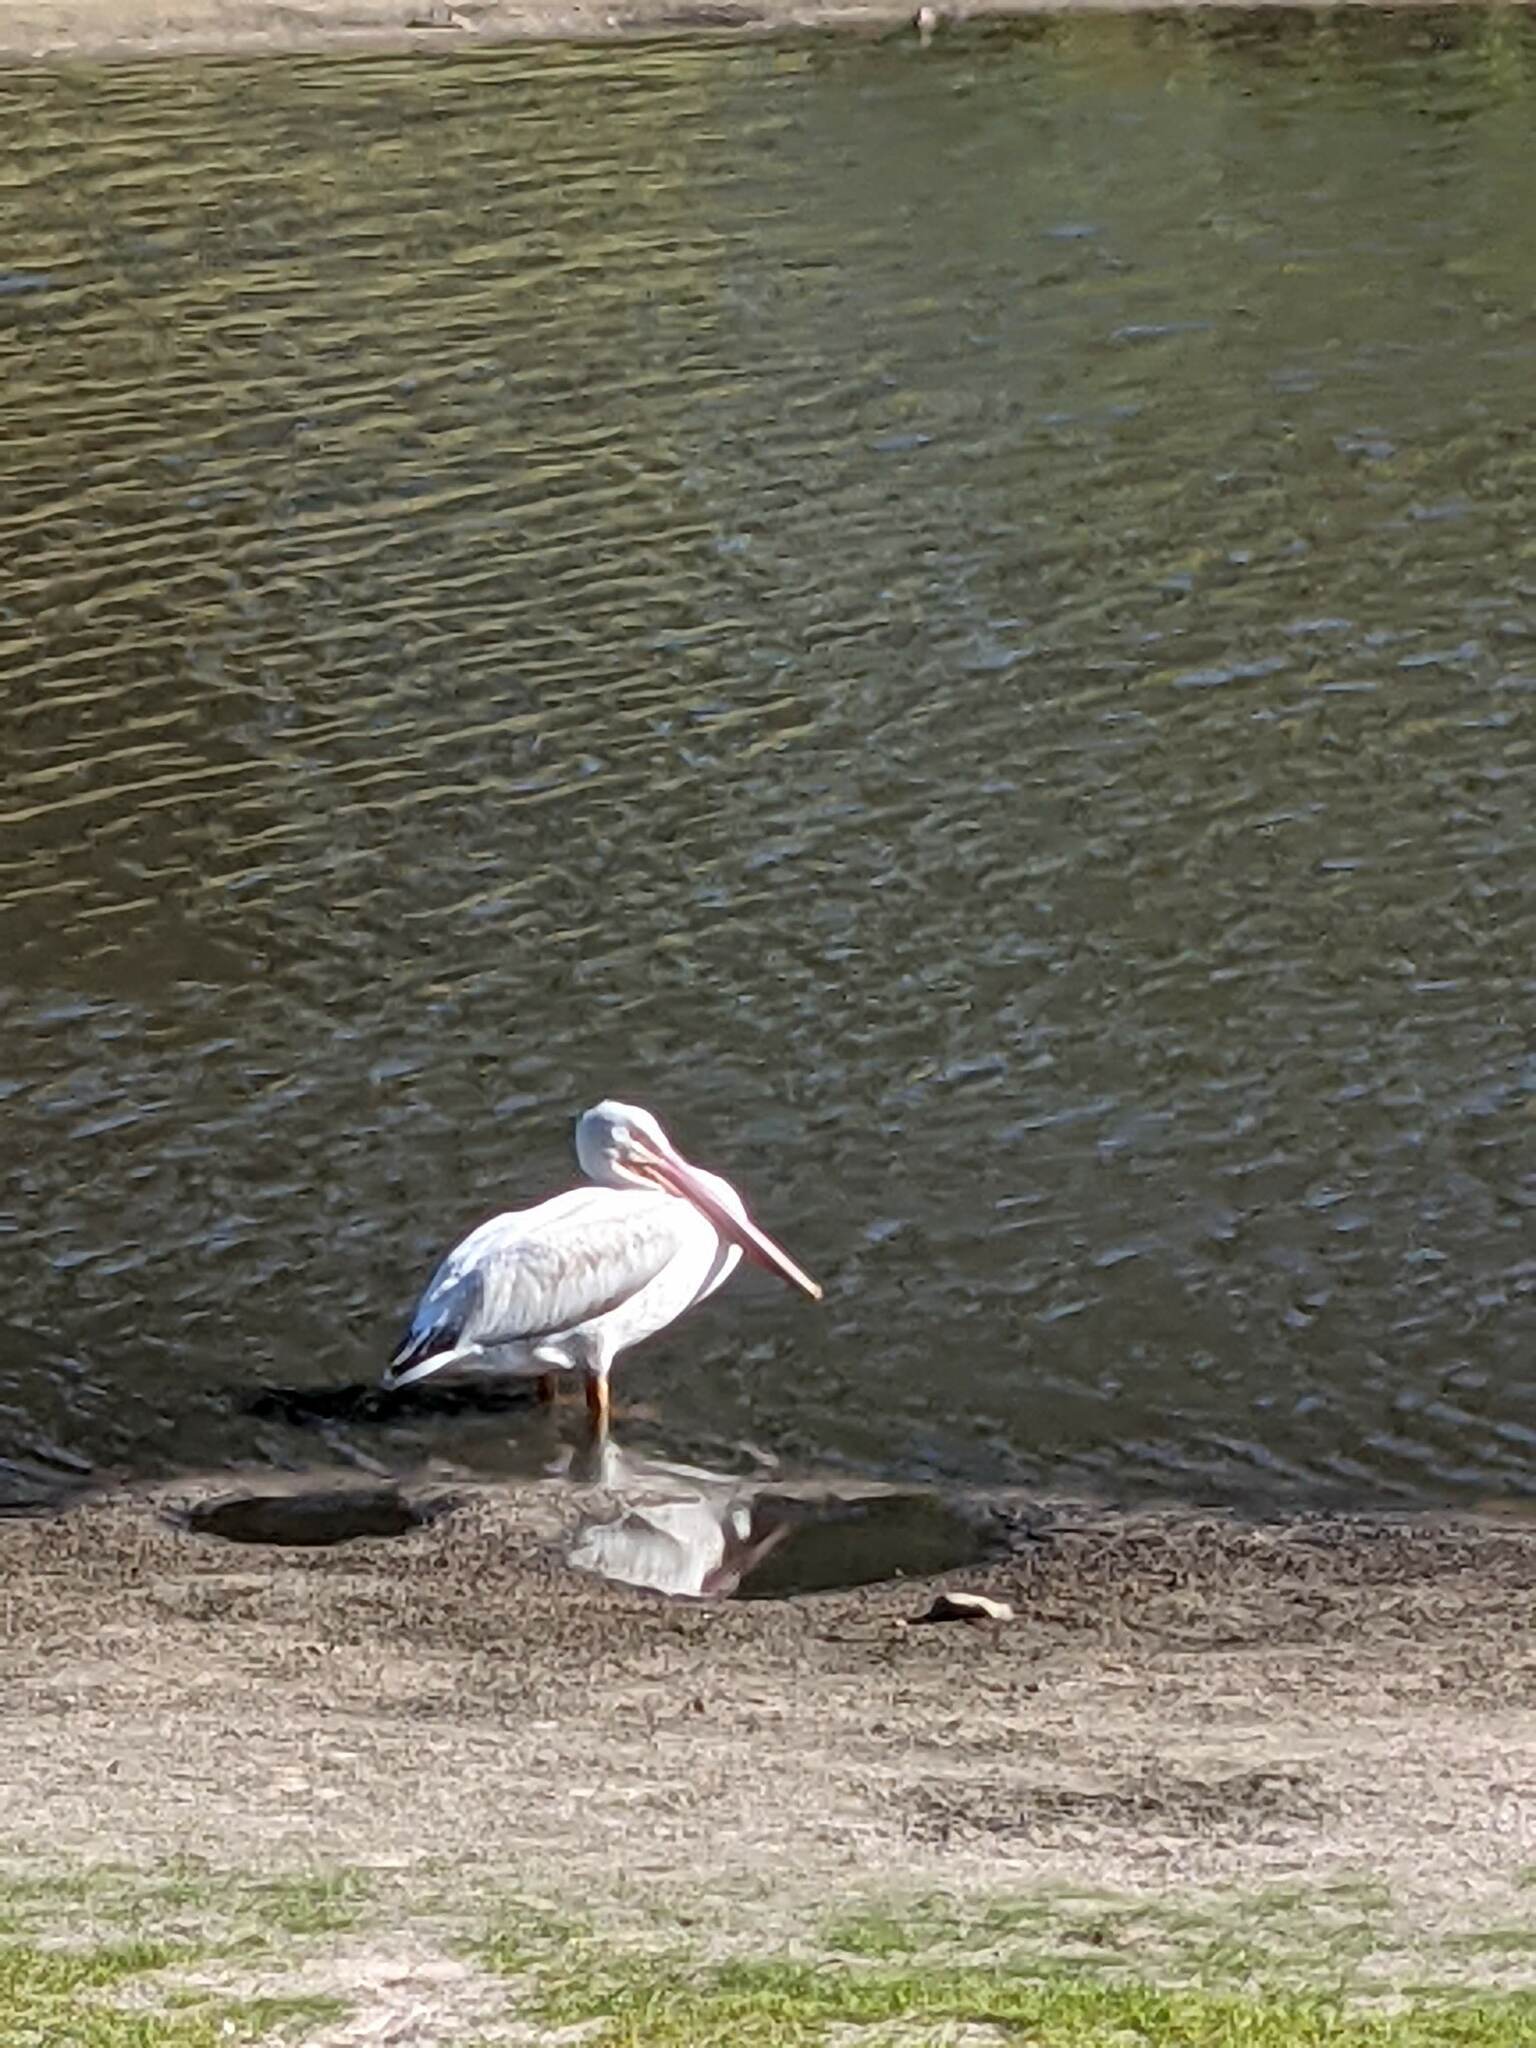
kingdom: Animalia
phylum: Chordata
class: Aves
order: Pelecaniformes
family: Pelecanidae
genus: Pelecanus
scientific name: Pelecanus erythrorhynchos
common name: American white pelican
